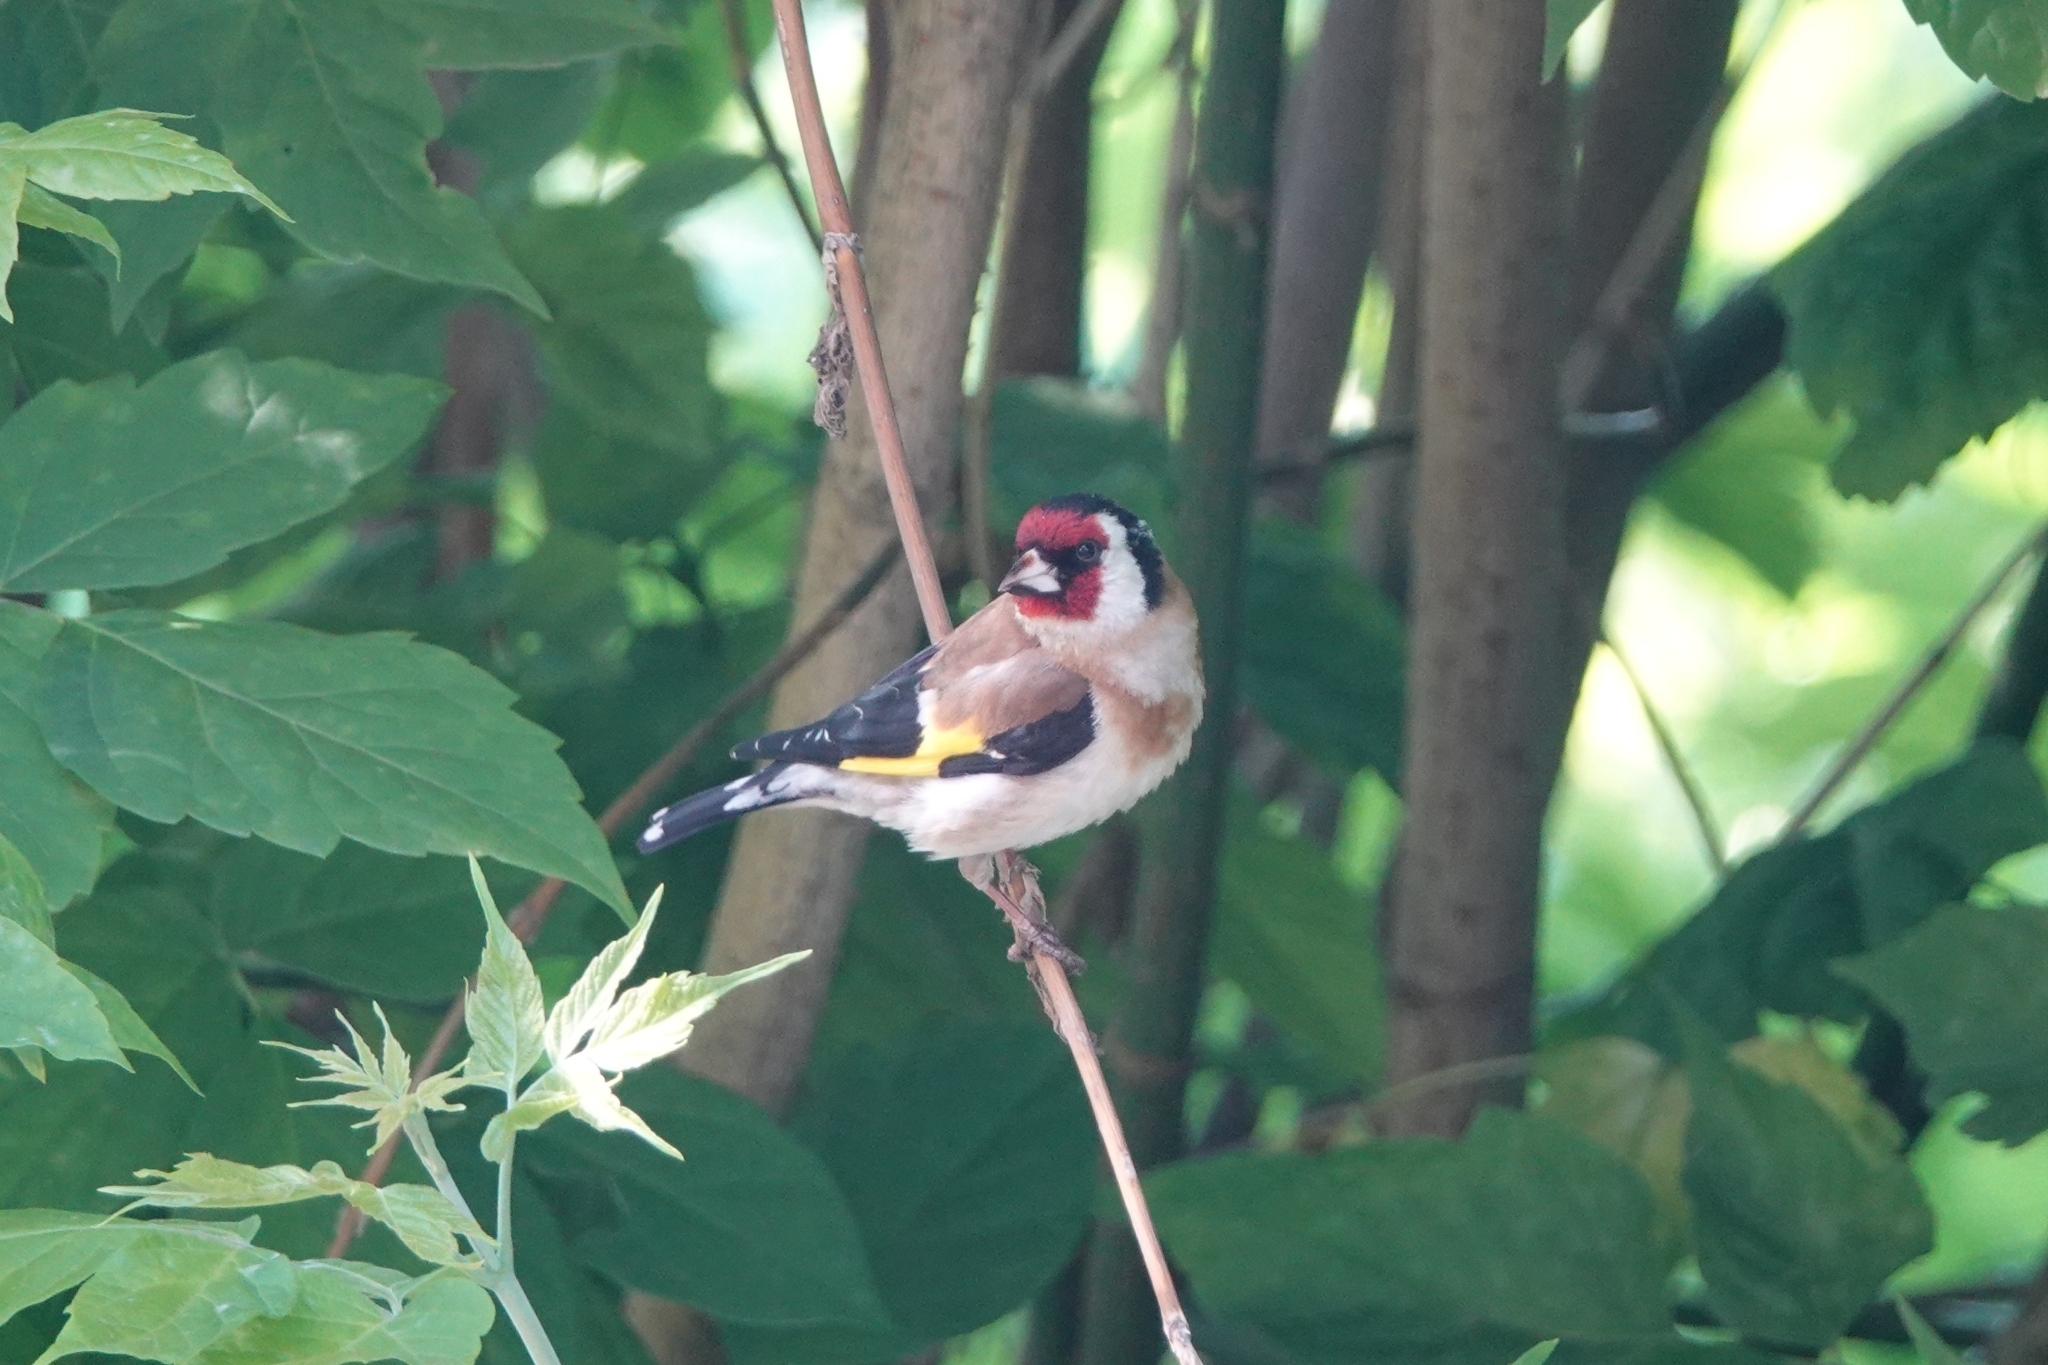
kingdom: Animalia
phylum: Chordata
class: Aves
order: Passeriformes
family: Fringillidae
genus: Carduelis
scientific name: Carduelis carduelis
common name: European goldfinch
